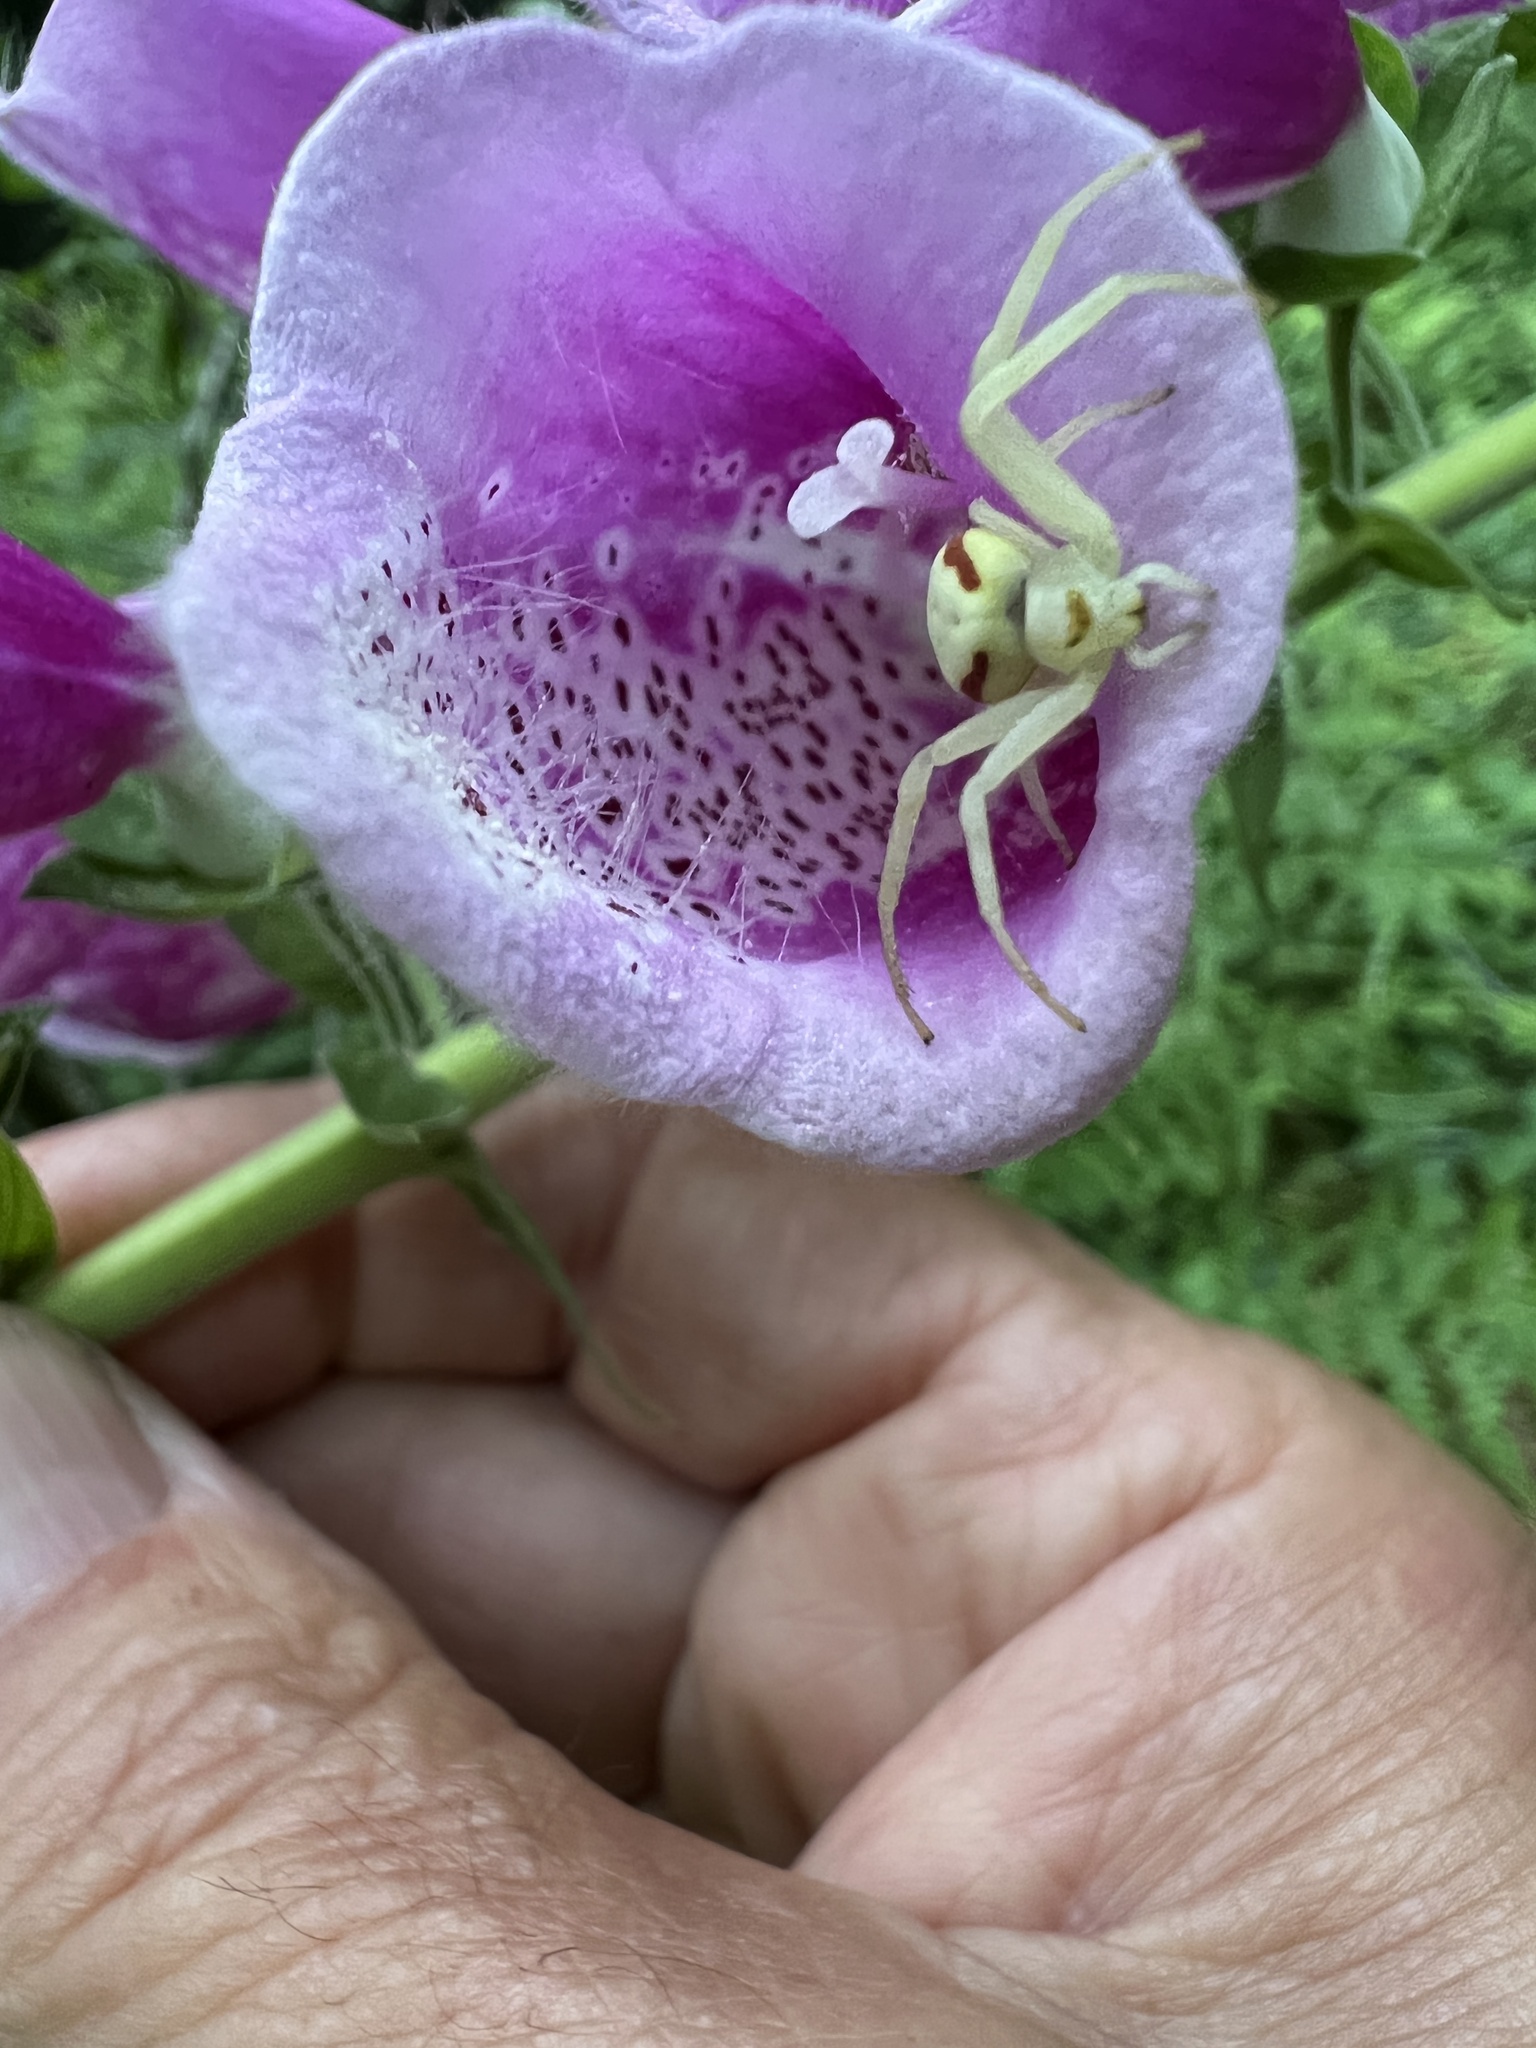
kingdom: Animalia
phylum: Arthropoda
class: Arachnida
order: Araneae
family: Thomisidae
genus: Misumena
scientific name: Misumena vatia
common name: Goldenrod crab spider
